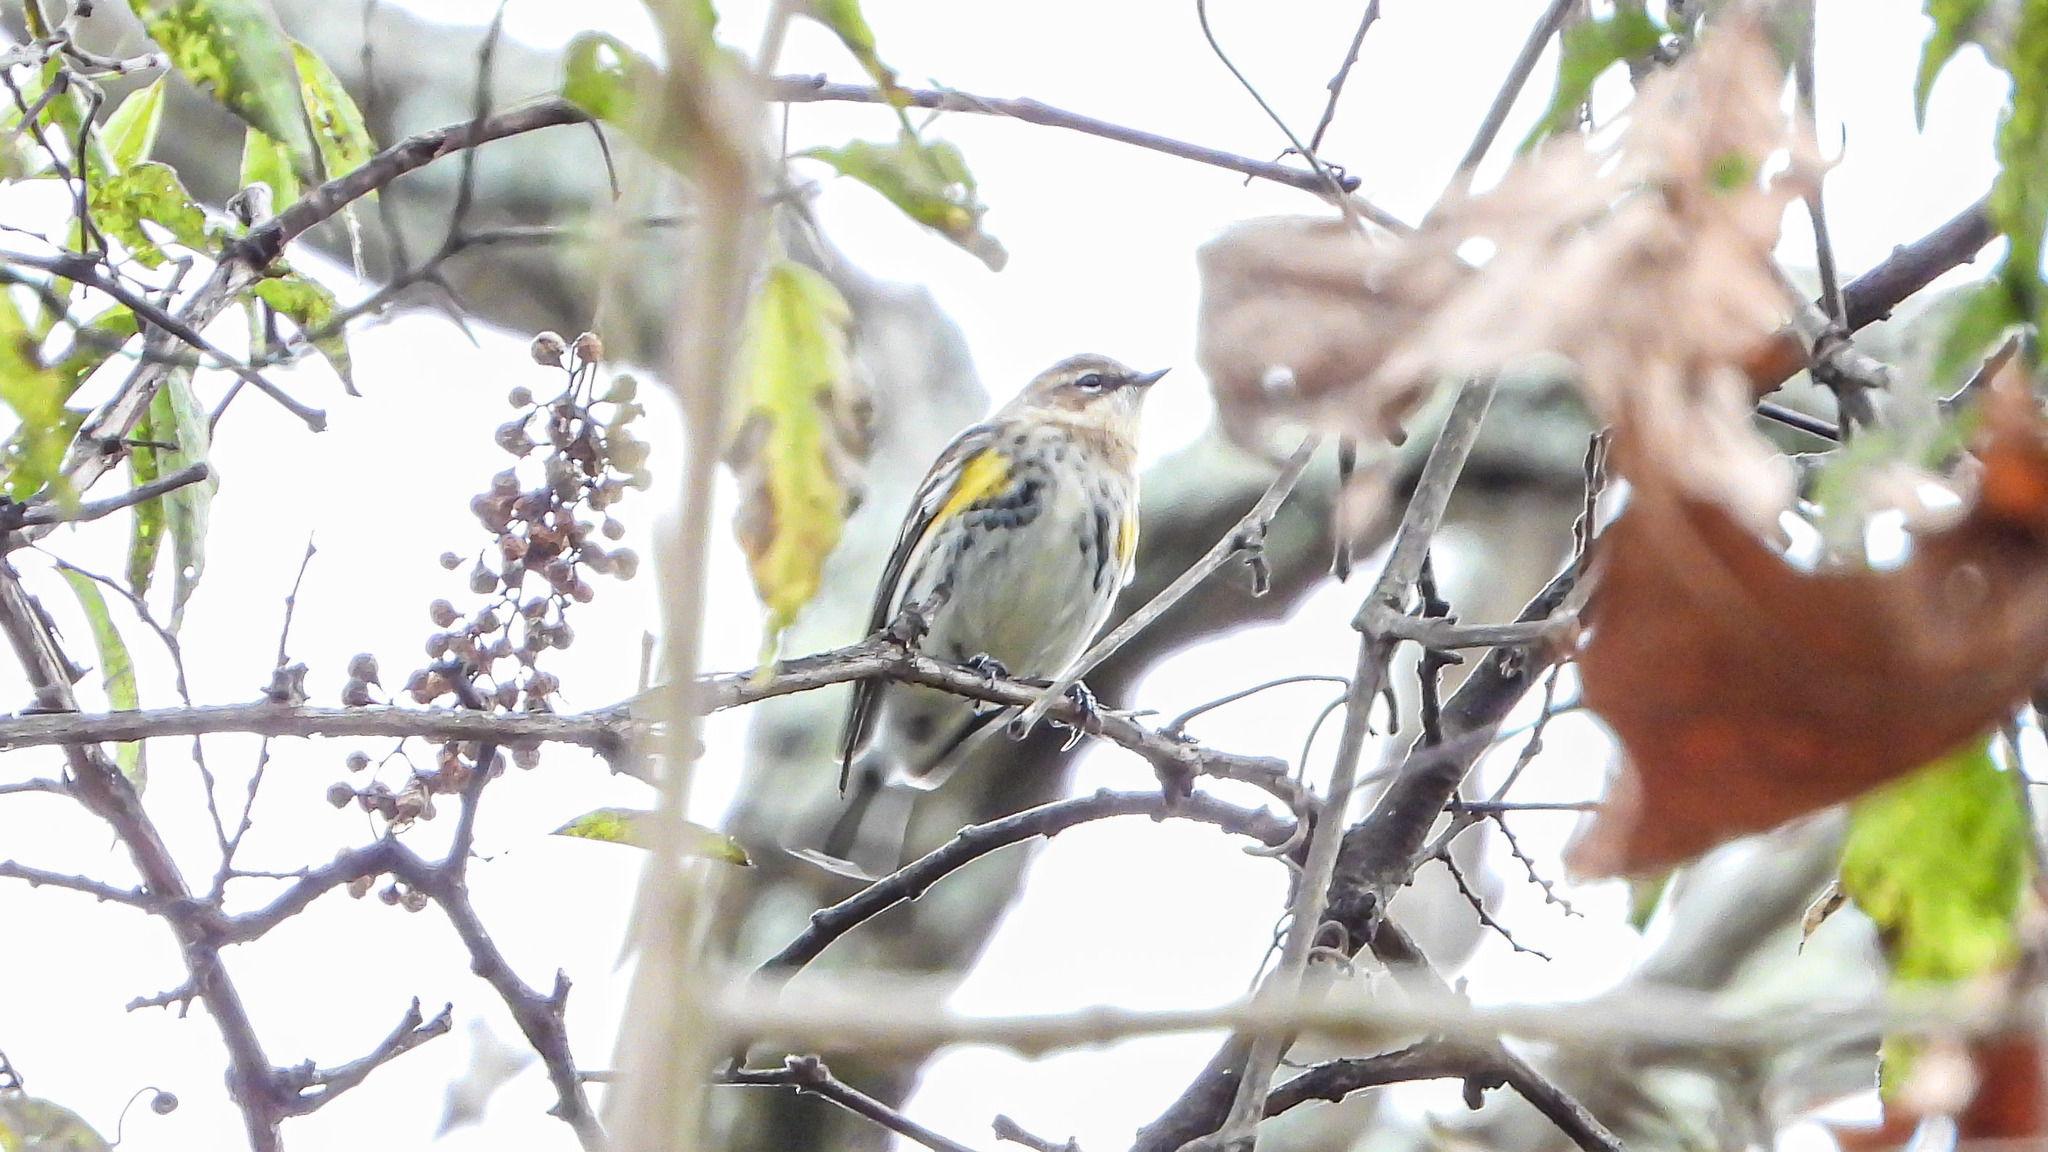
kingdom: Animalia
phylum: Chordata
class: Aves
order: Passeriformes
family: Parulidae
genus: Setophaga
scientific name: Setophaga coronata
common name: Myrtle warbler
